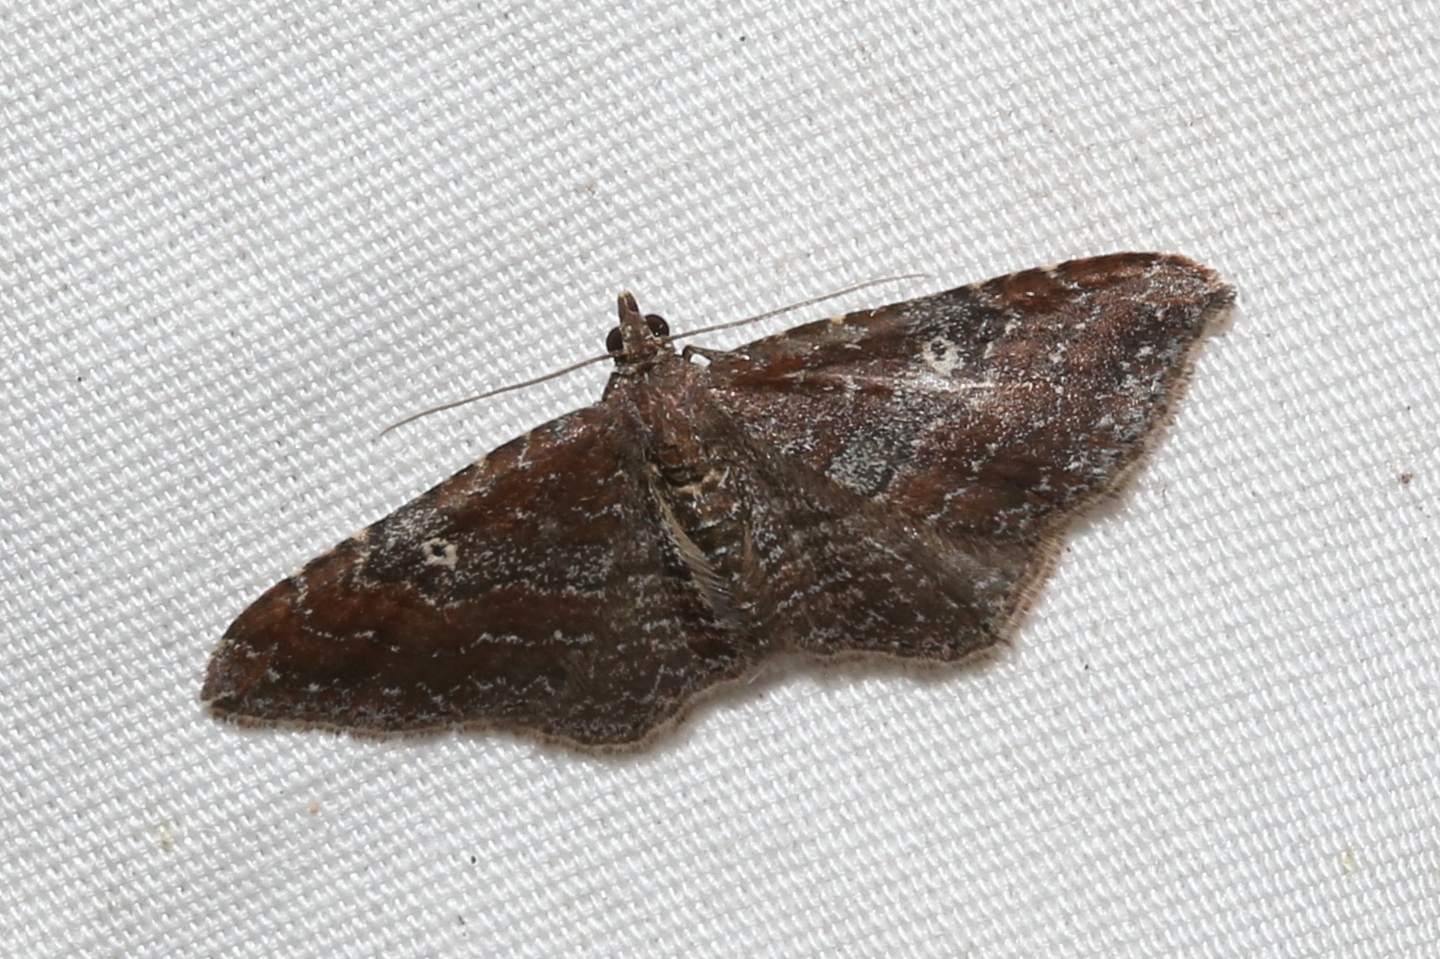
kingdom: Animalia
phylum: Arthropoda
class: Insecta
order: Lepidoptera
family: Geometridae
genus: Orthonama
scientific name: Orthonama obstipata
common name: The gem
